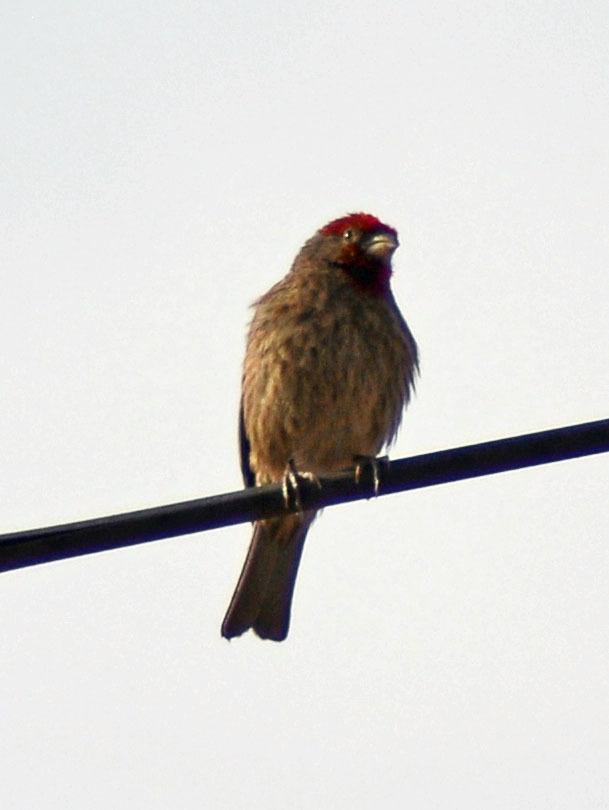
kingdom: Animalia
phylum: Chordata
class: Aves
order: Passeriformes
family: Fringillidae
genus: Haemorhous
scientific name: Haemorhous mexicanus
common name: House finch
